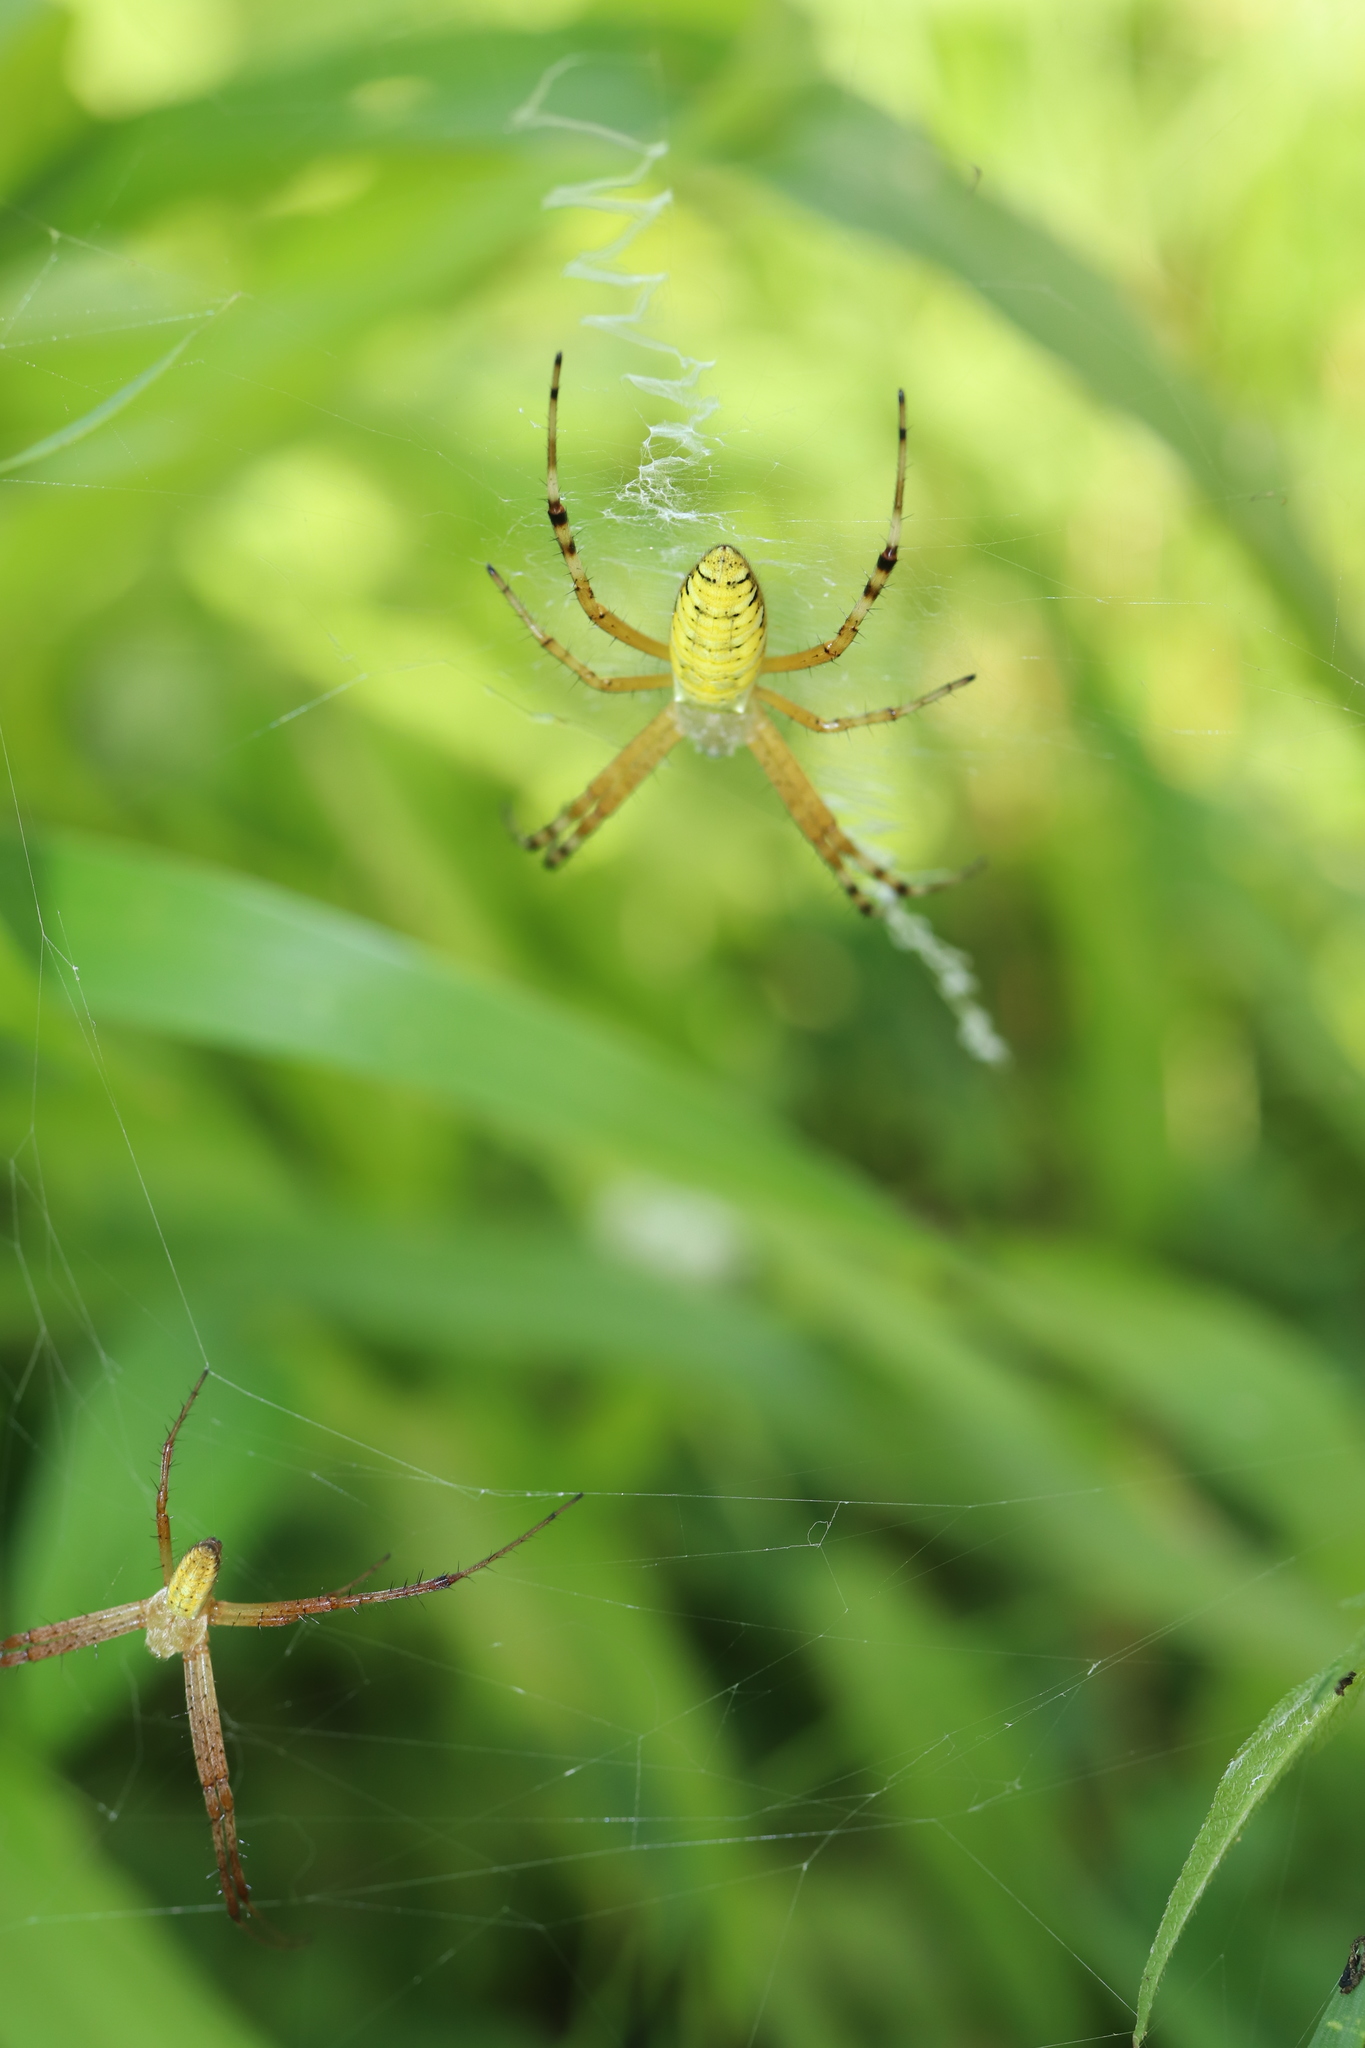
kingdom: Animalia
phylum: Arthropoda
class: Arachnida
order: Araneae
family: Araneidae
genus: Argiope
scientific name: Argiope bruennichi
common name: Wasp spider
